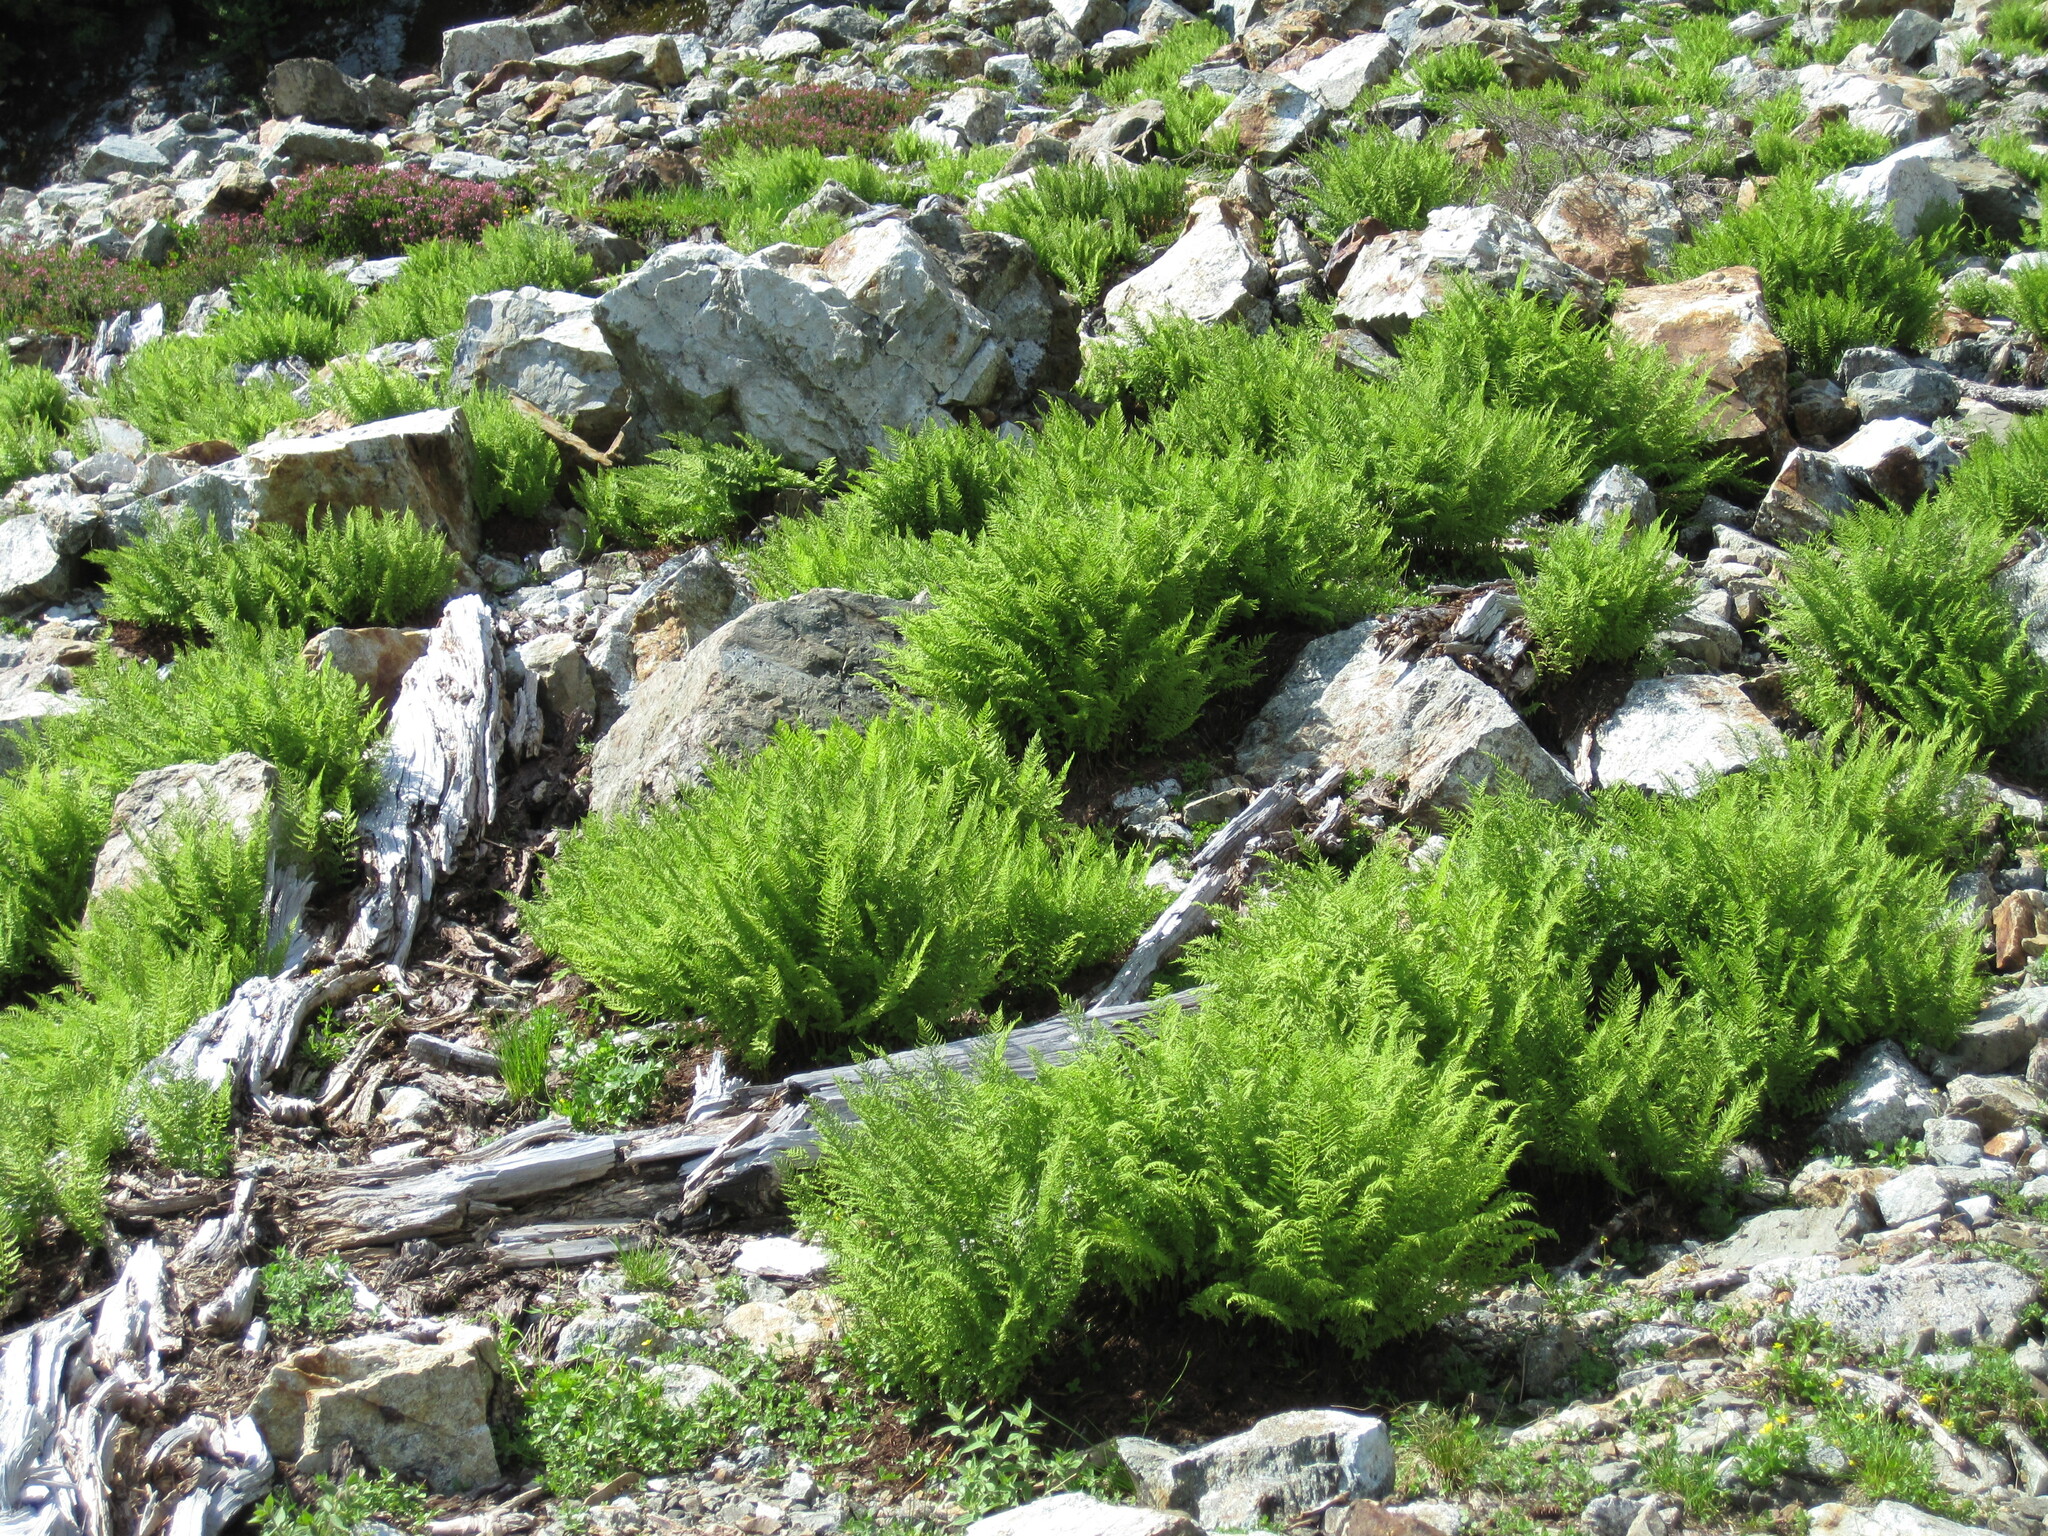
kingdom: Plantae
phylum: Tracheophyta
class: Polypodiopsida
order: Polypodiales
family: Athyriaceae
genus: Athyrium
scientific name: Athyrium americanum
